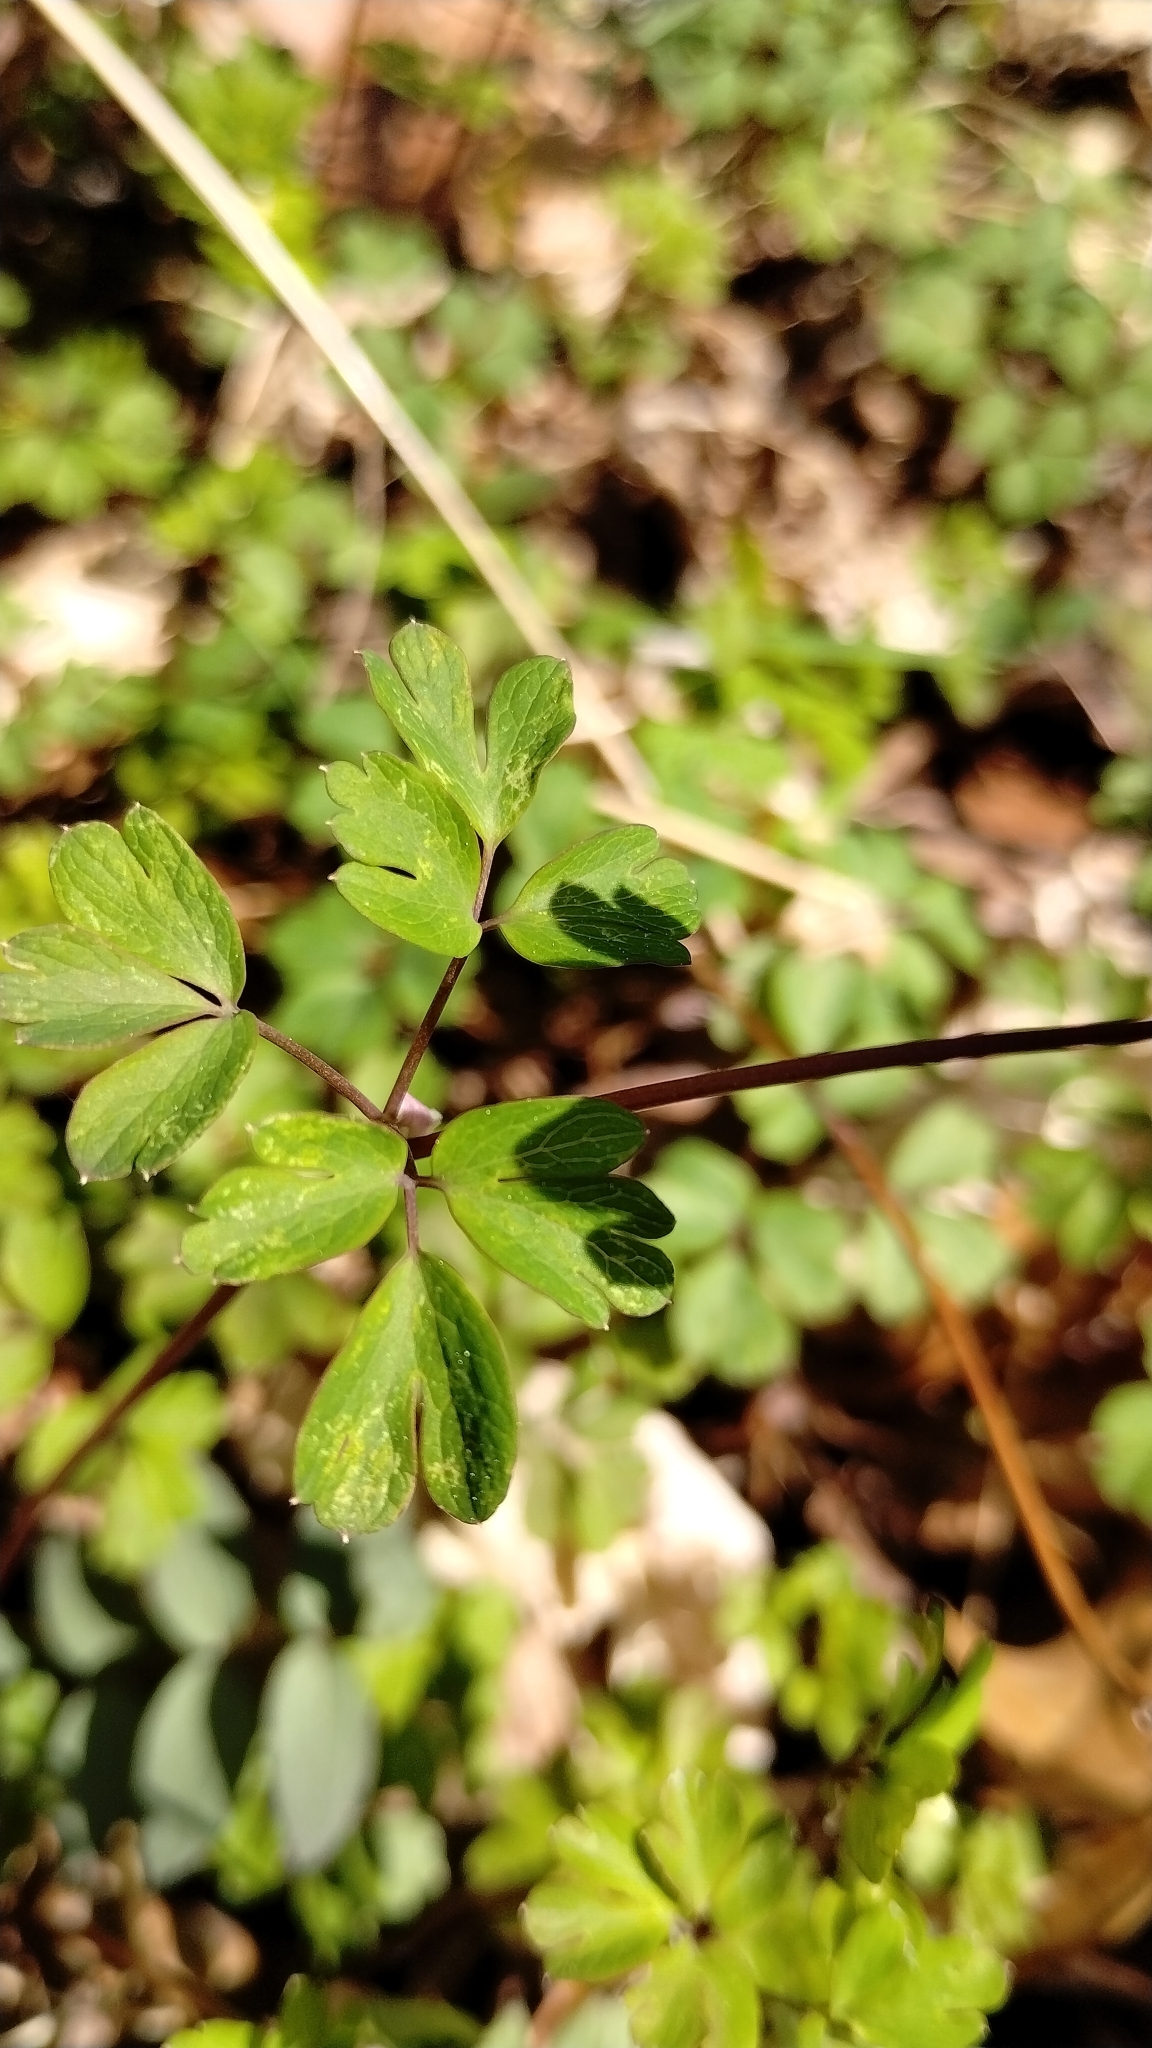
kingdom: Plantae
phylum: Tracheophyta
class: Magnoliopsida
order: Ranunculales
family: Ranunculaceae
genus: Enemion
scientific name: Enemion biternatum
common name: Eastern false rue-anemone
